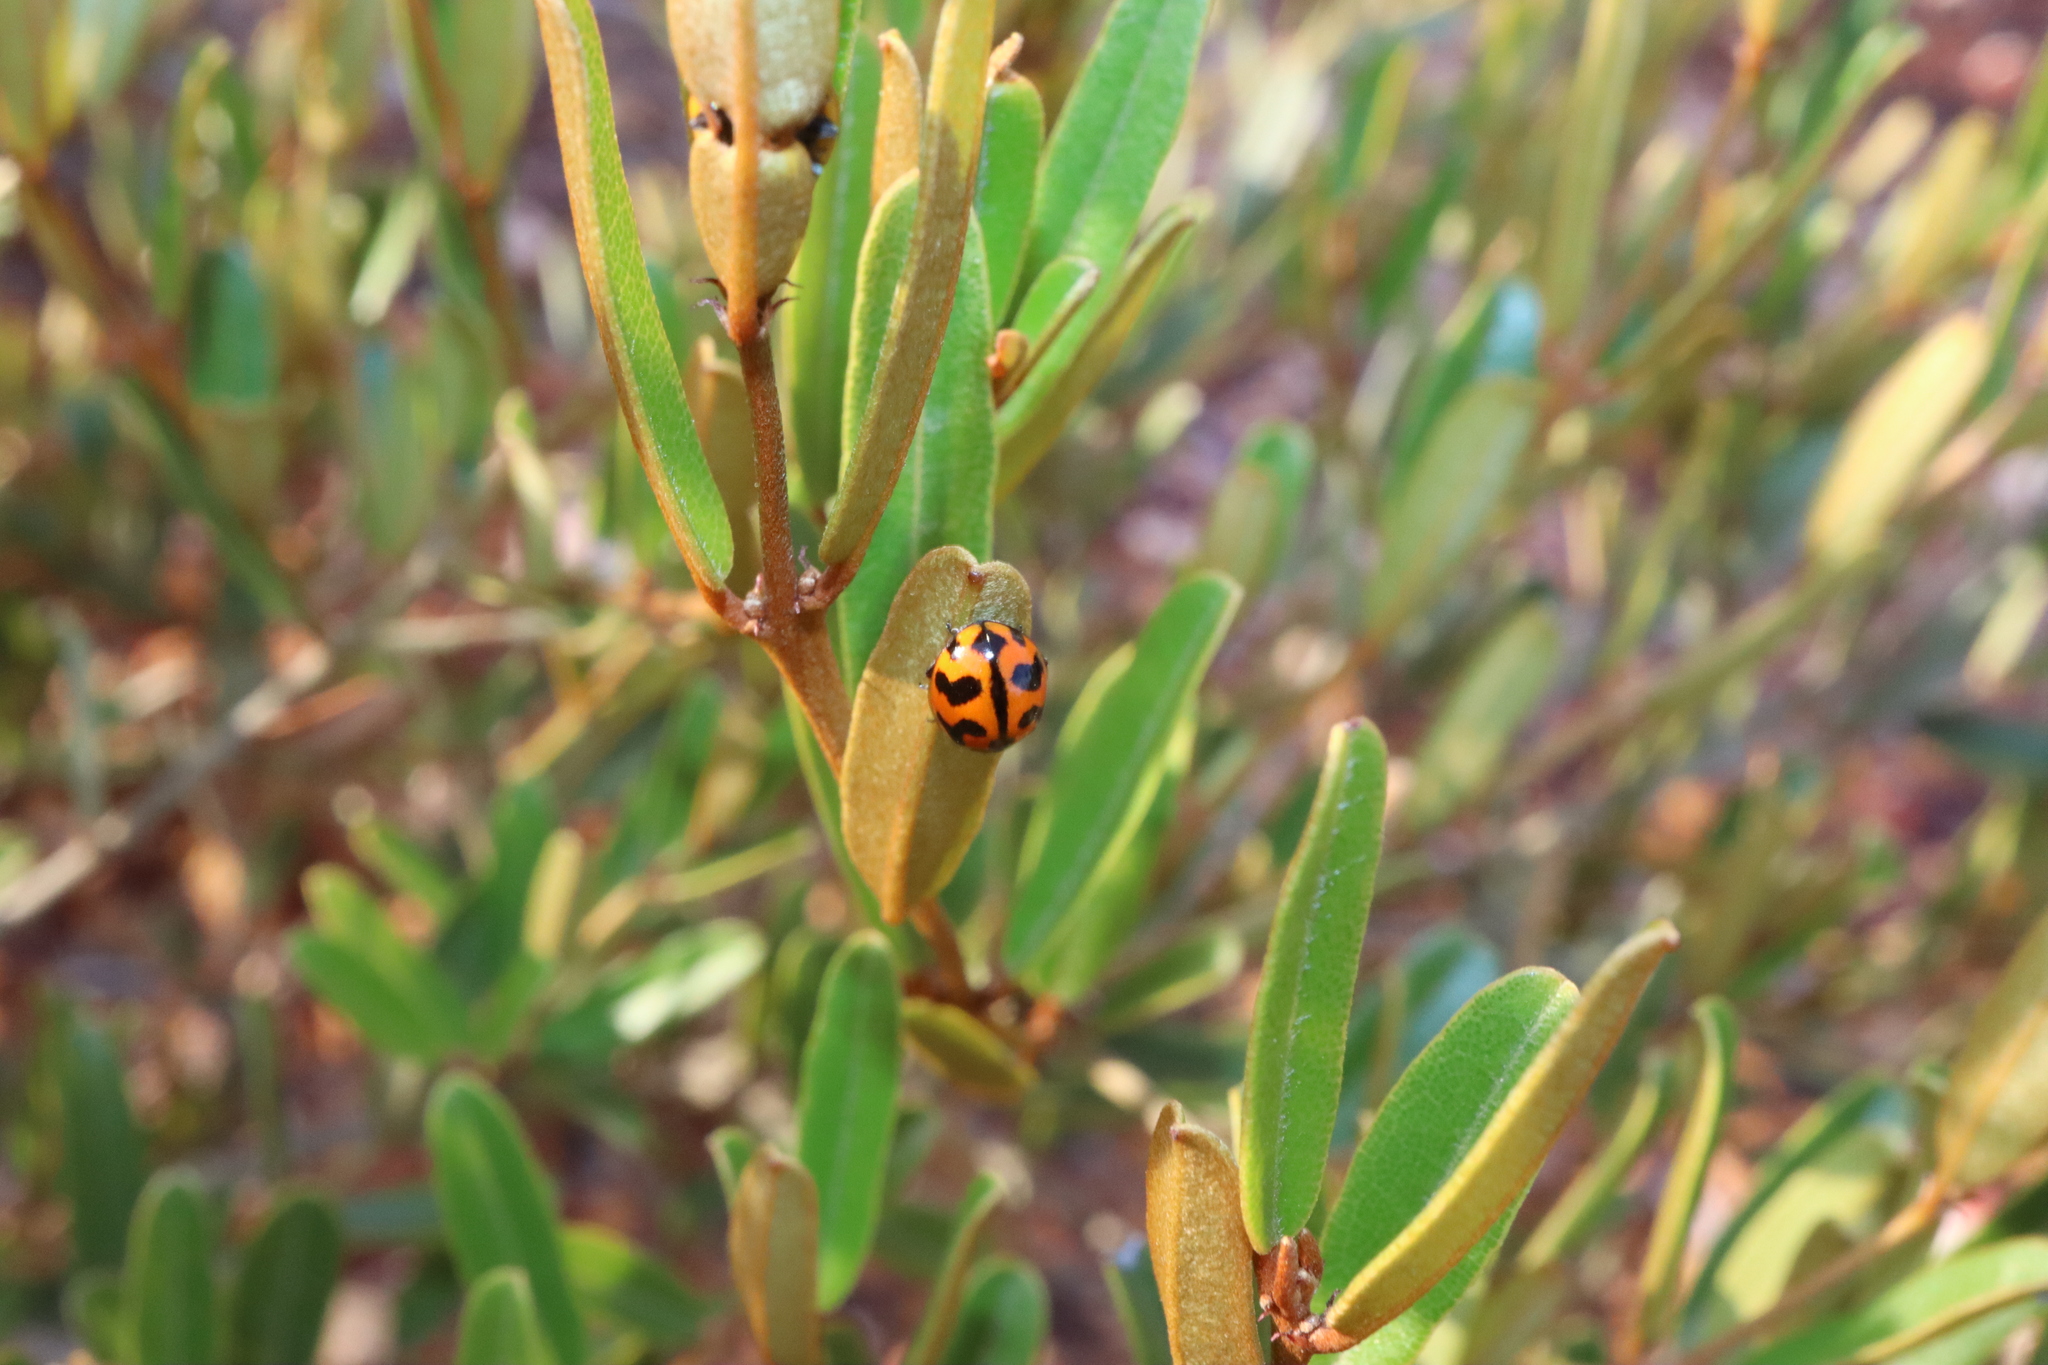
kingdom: Animalia
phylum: Arthropoda
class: Insecta
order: Coleoptera
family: Coccinellidae
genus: Coccinella
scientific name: Coccinella transversalis
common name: Transverse lady beetle
